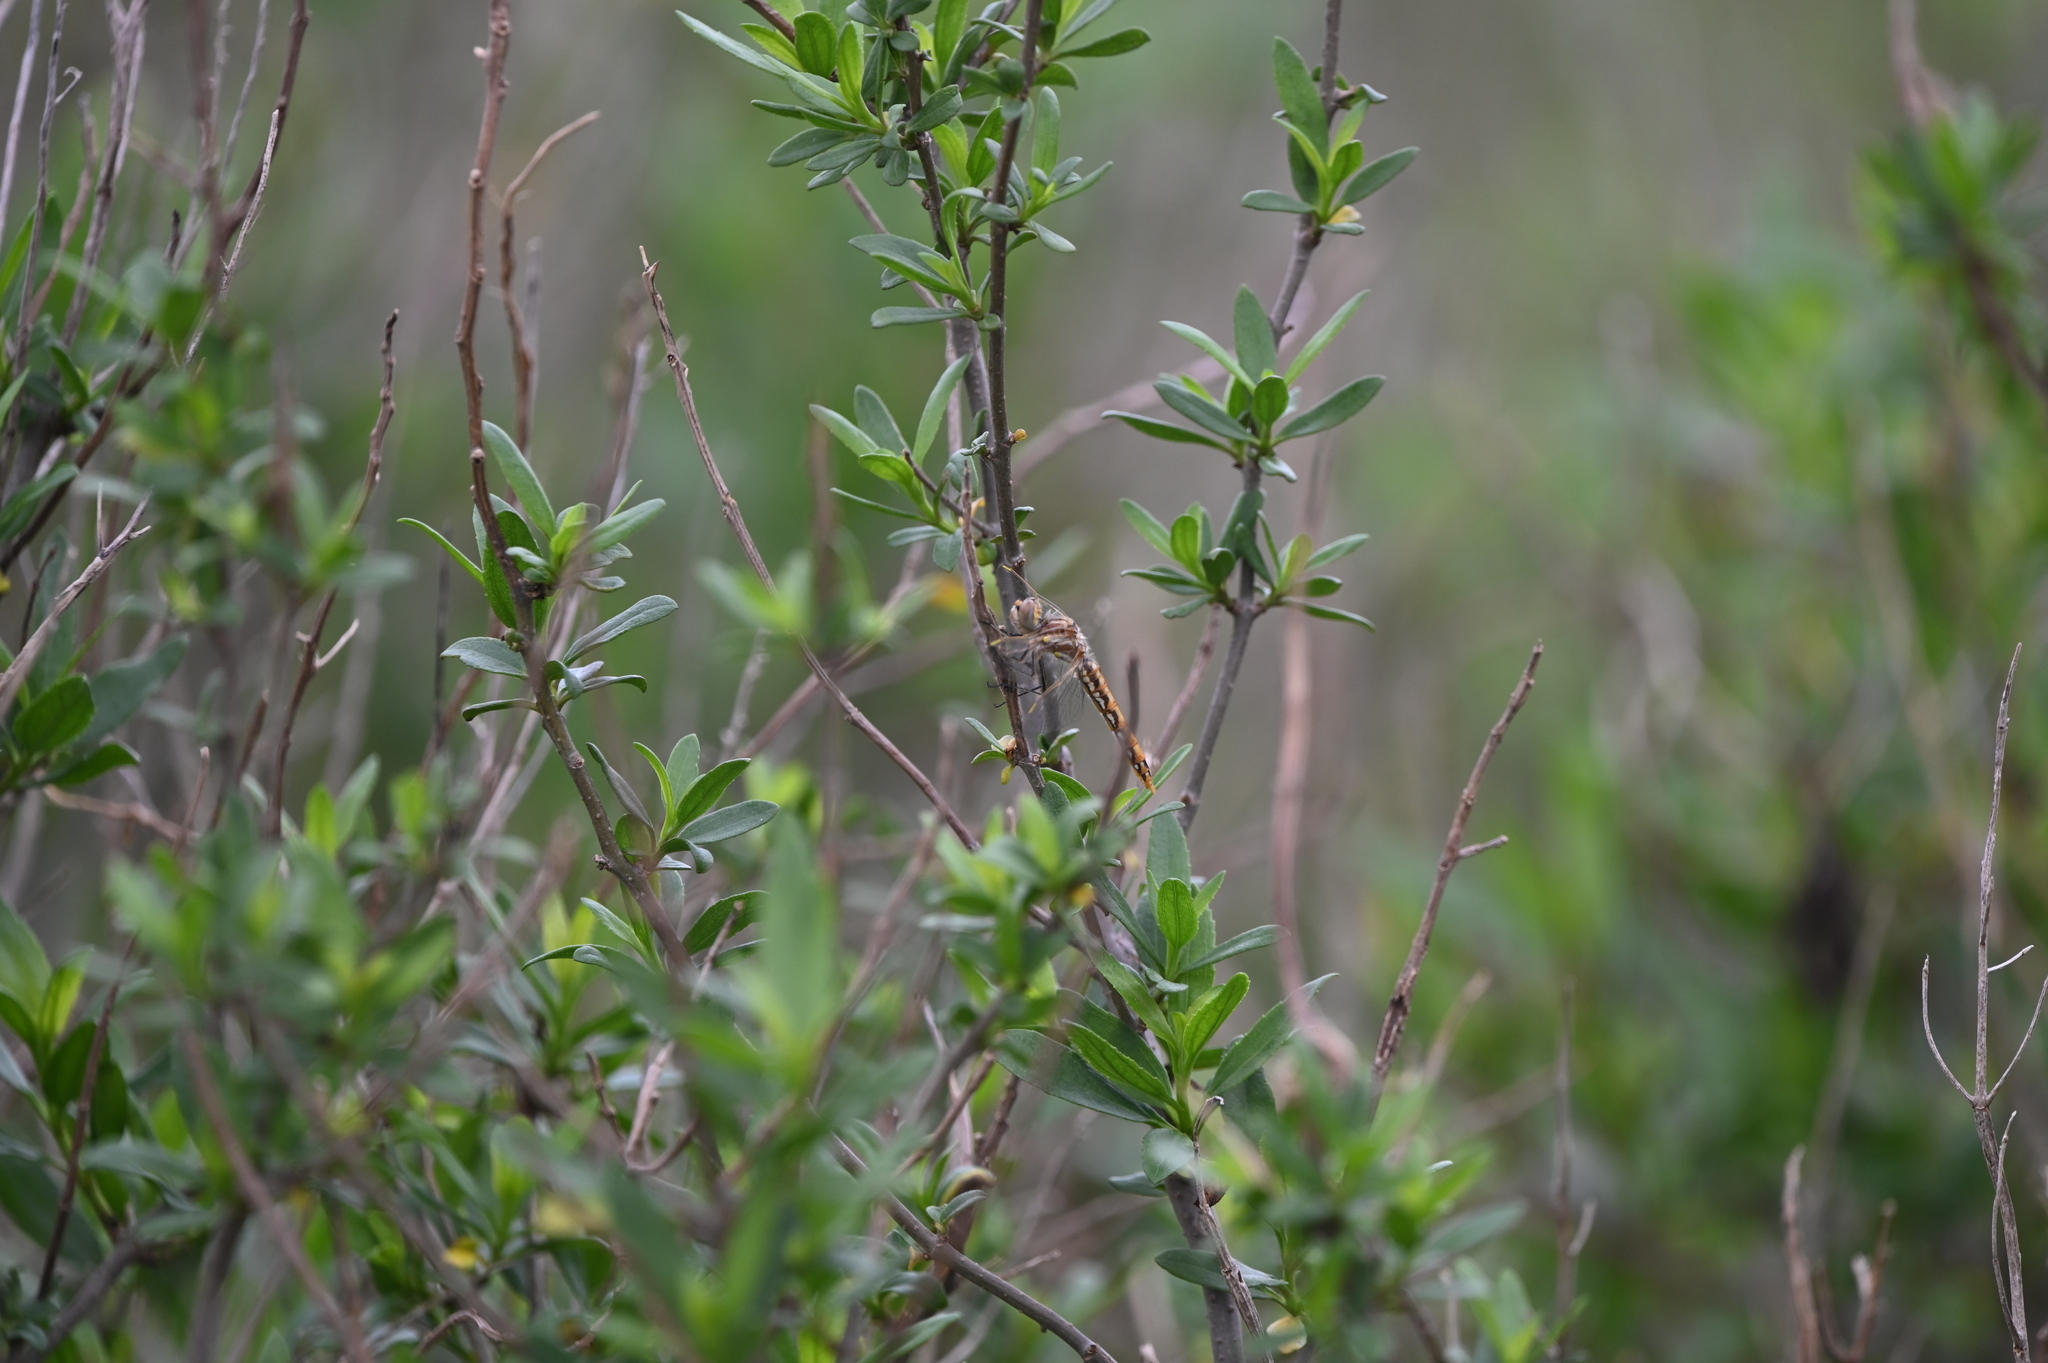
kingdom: Animalia
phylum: Arthropoda
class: Insecta
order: Odonata
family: Libellulidae
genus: Sympetrum
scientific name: Sympetrum corruptum
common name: Variegated meadowhawk
